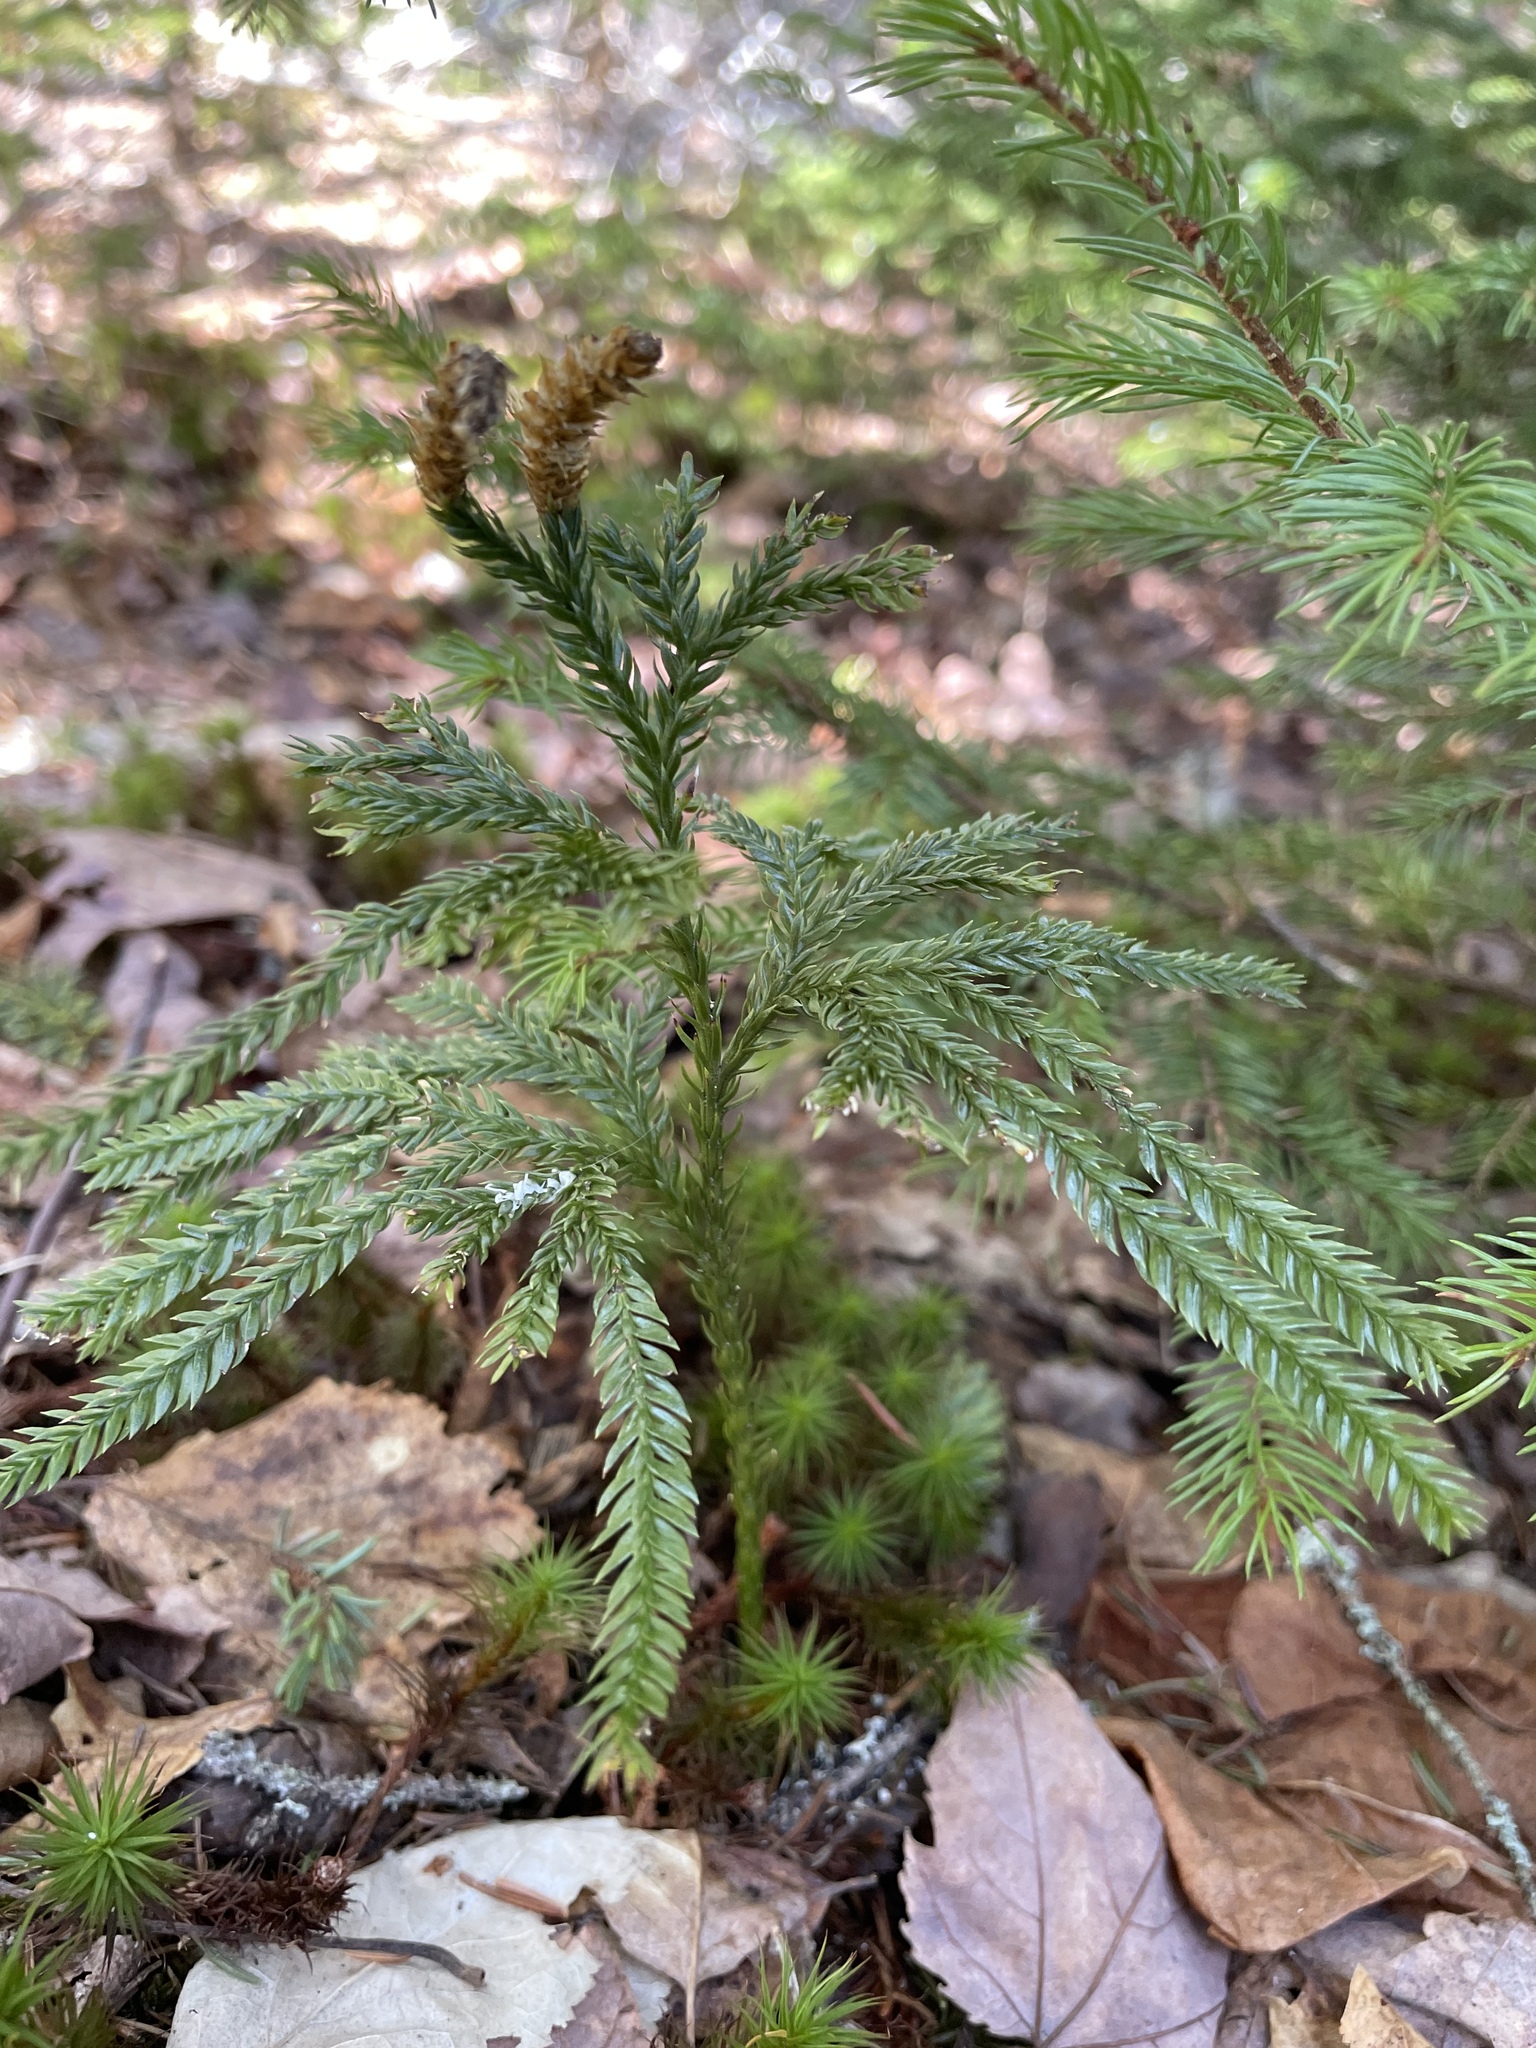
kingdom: Plantae
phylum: Tracheophyta
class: Lycopodiopsida
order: Lycopodiales
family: Lycopodiaceae
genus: Dendrolycopodium
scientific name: Dendrolycopodium obscurum
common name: Common ground-pine
